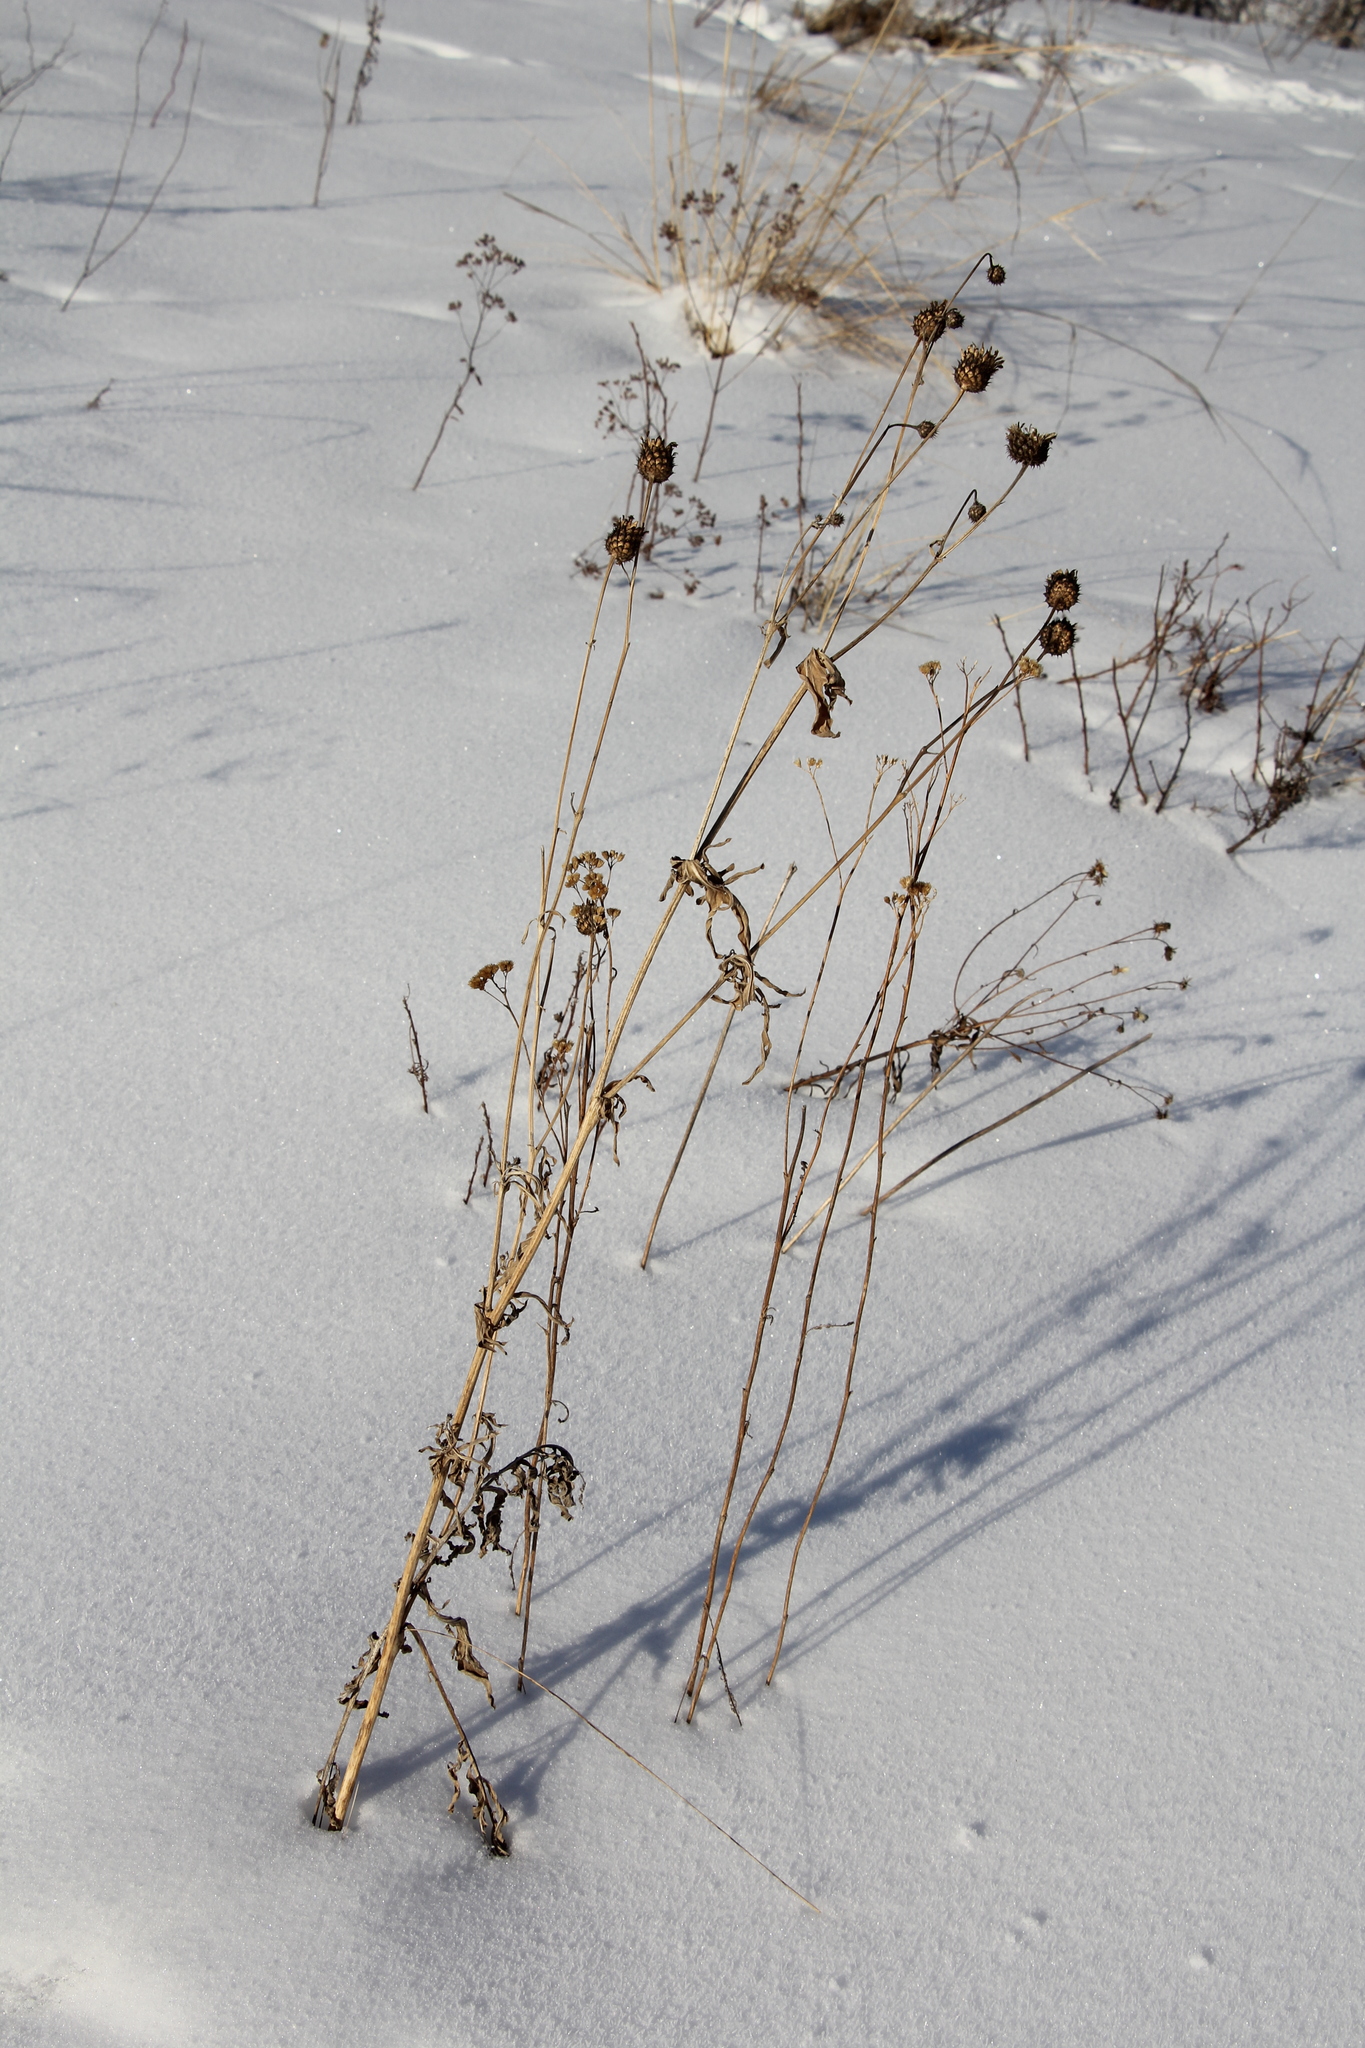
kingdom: Plantae
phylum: Tracheophyta
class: Magnoliopsida
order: Asterales
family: Asteraceae
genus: Centaurea
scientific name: Centaurea scabiosa
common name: Greater knapweed
